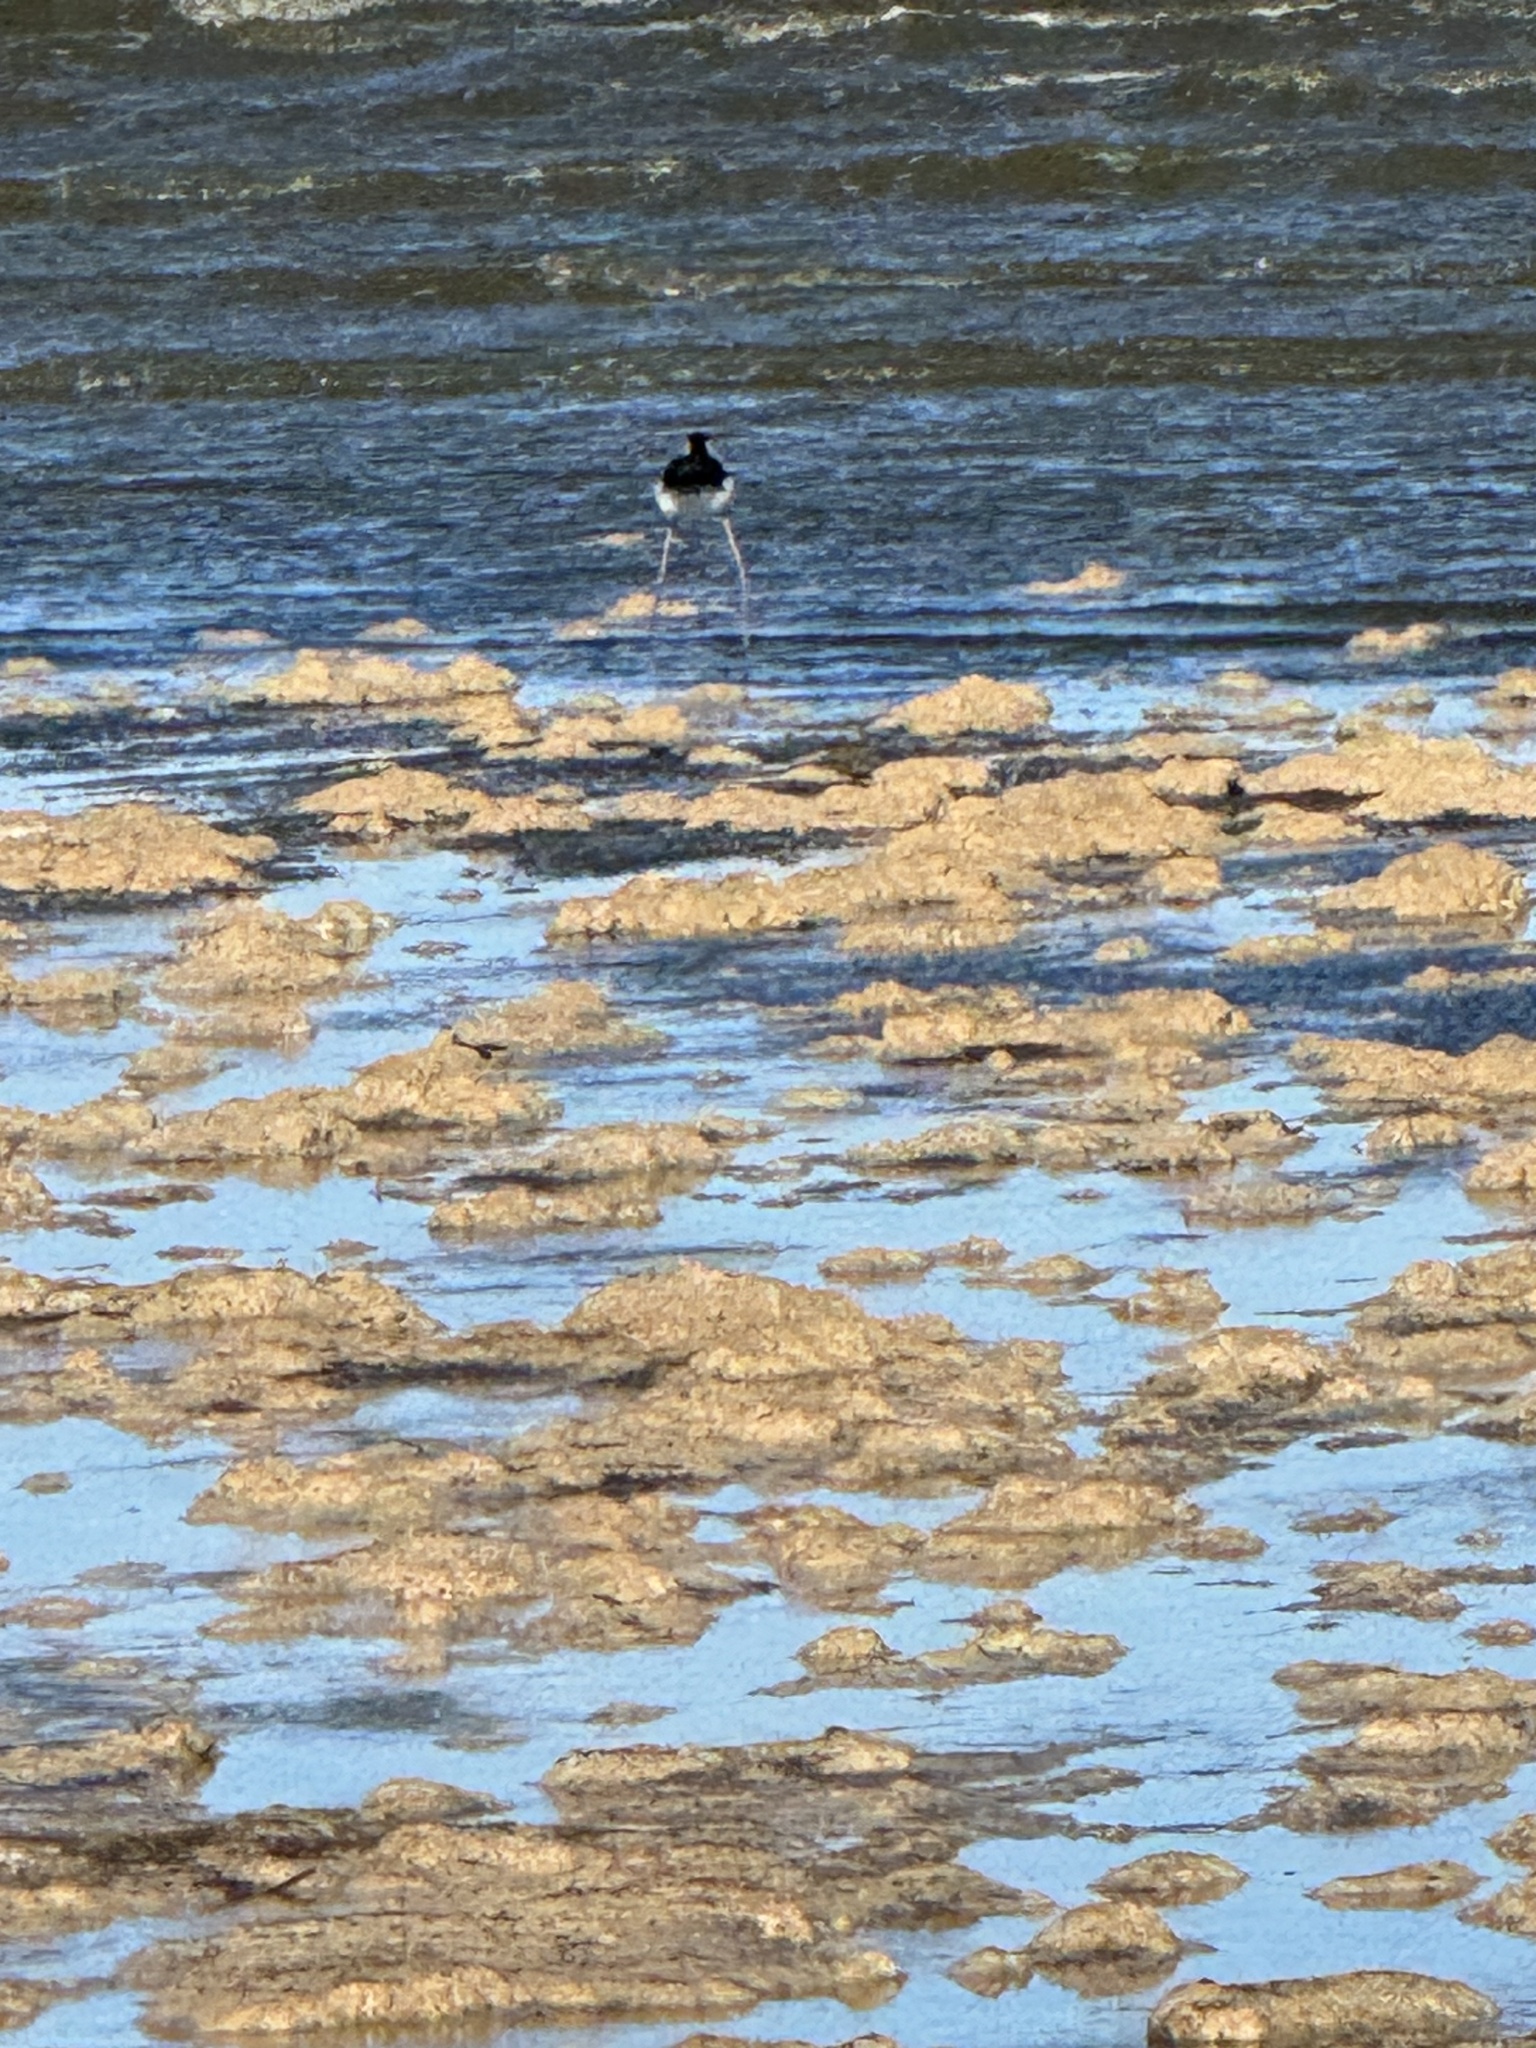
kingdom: Animalia
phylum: Chordata
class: Aves
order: Charadriiformes
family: Recurvirostridae
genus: Himantopus
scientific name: Himantopus mexicanus
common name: Black-necked stilt
